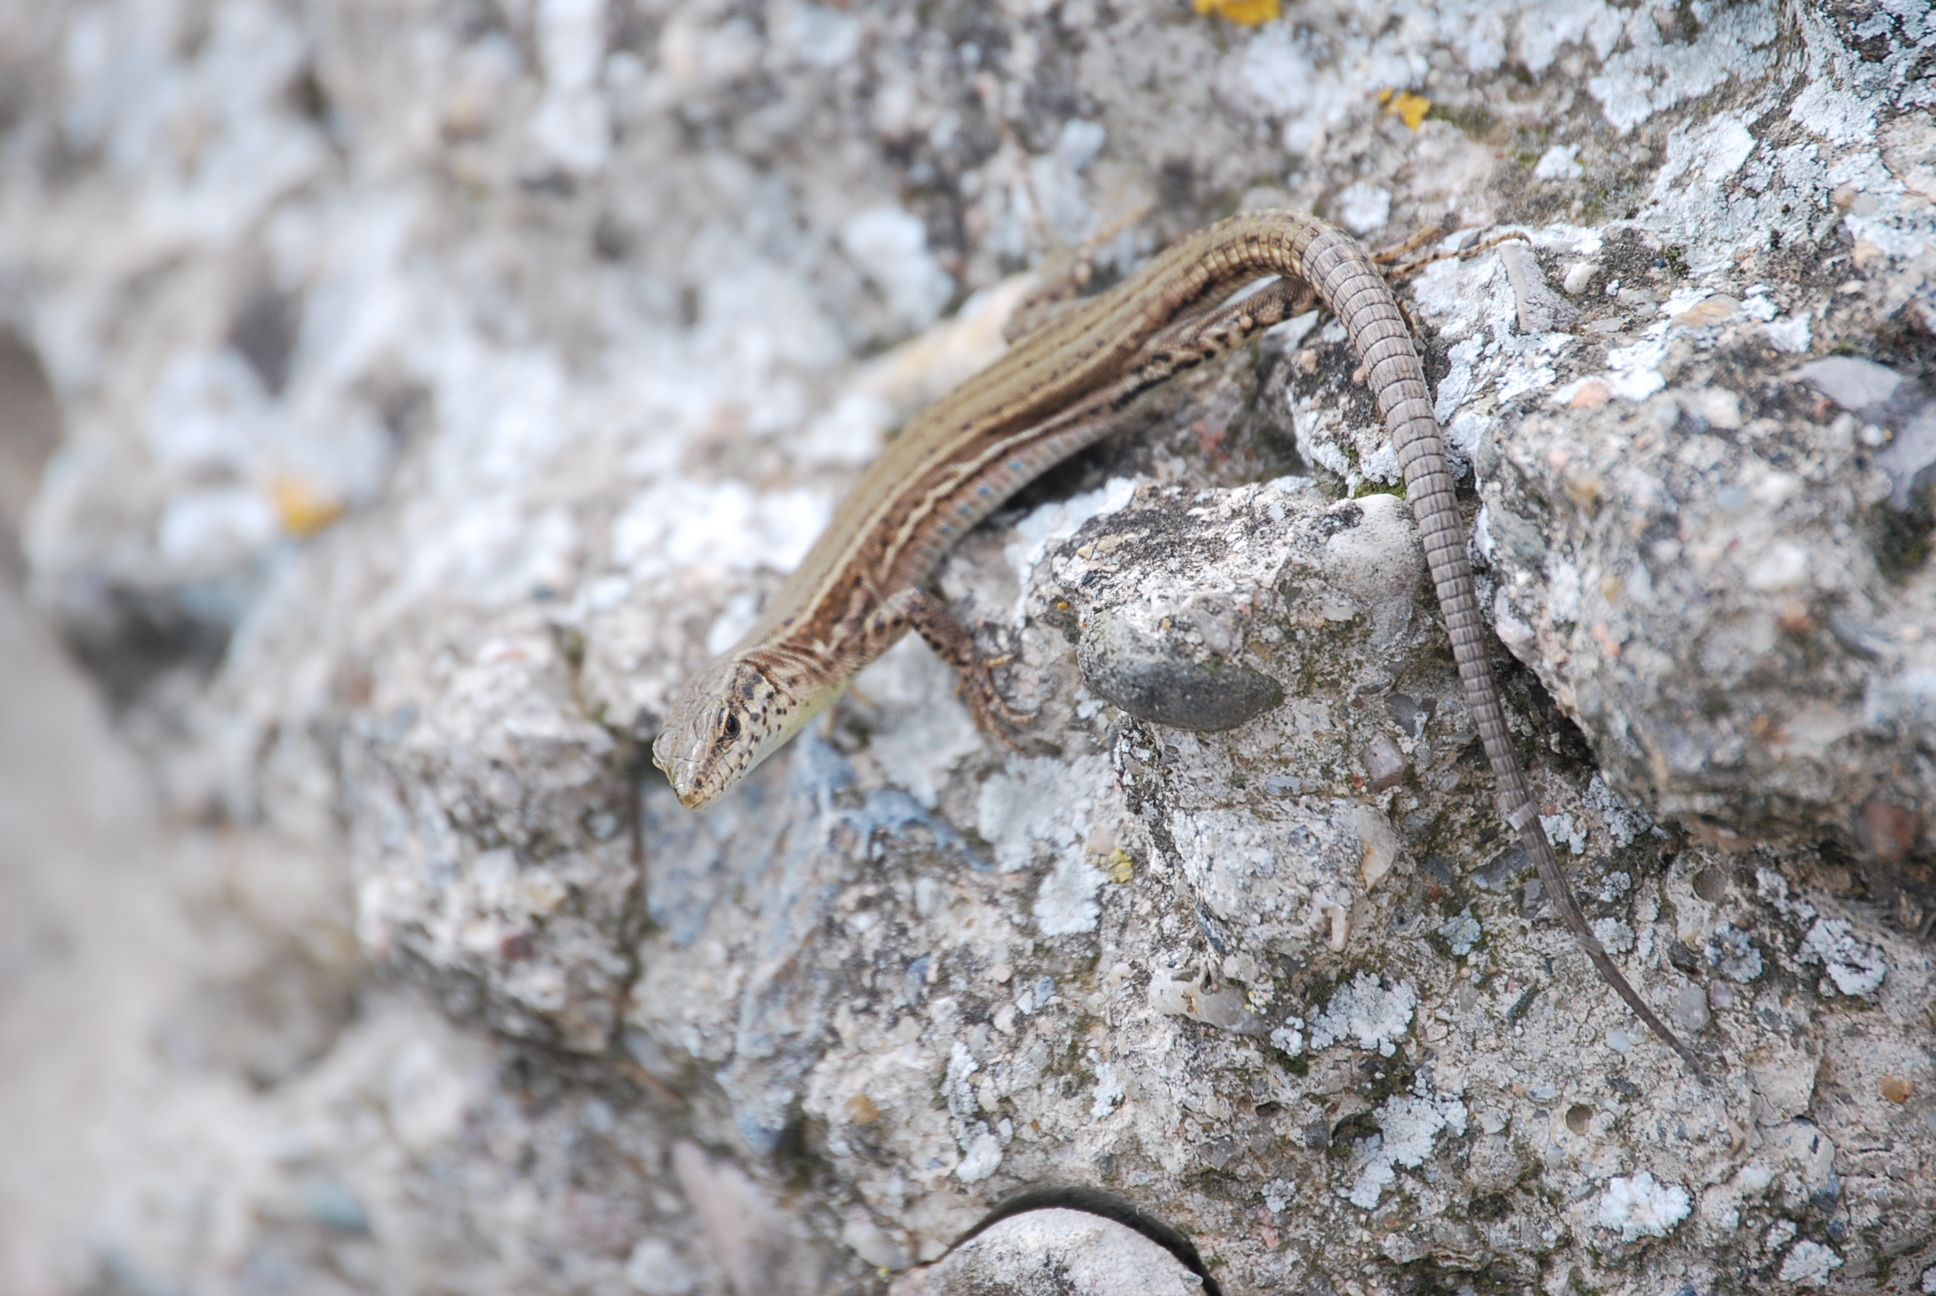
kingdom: Animalia
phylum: Chordata
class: Squamata
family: Lacertidae
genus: Podarcis
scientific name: Podarcis liolepis
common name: Catalonian wall lizard
